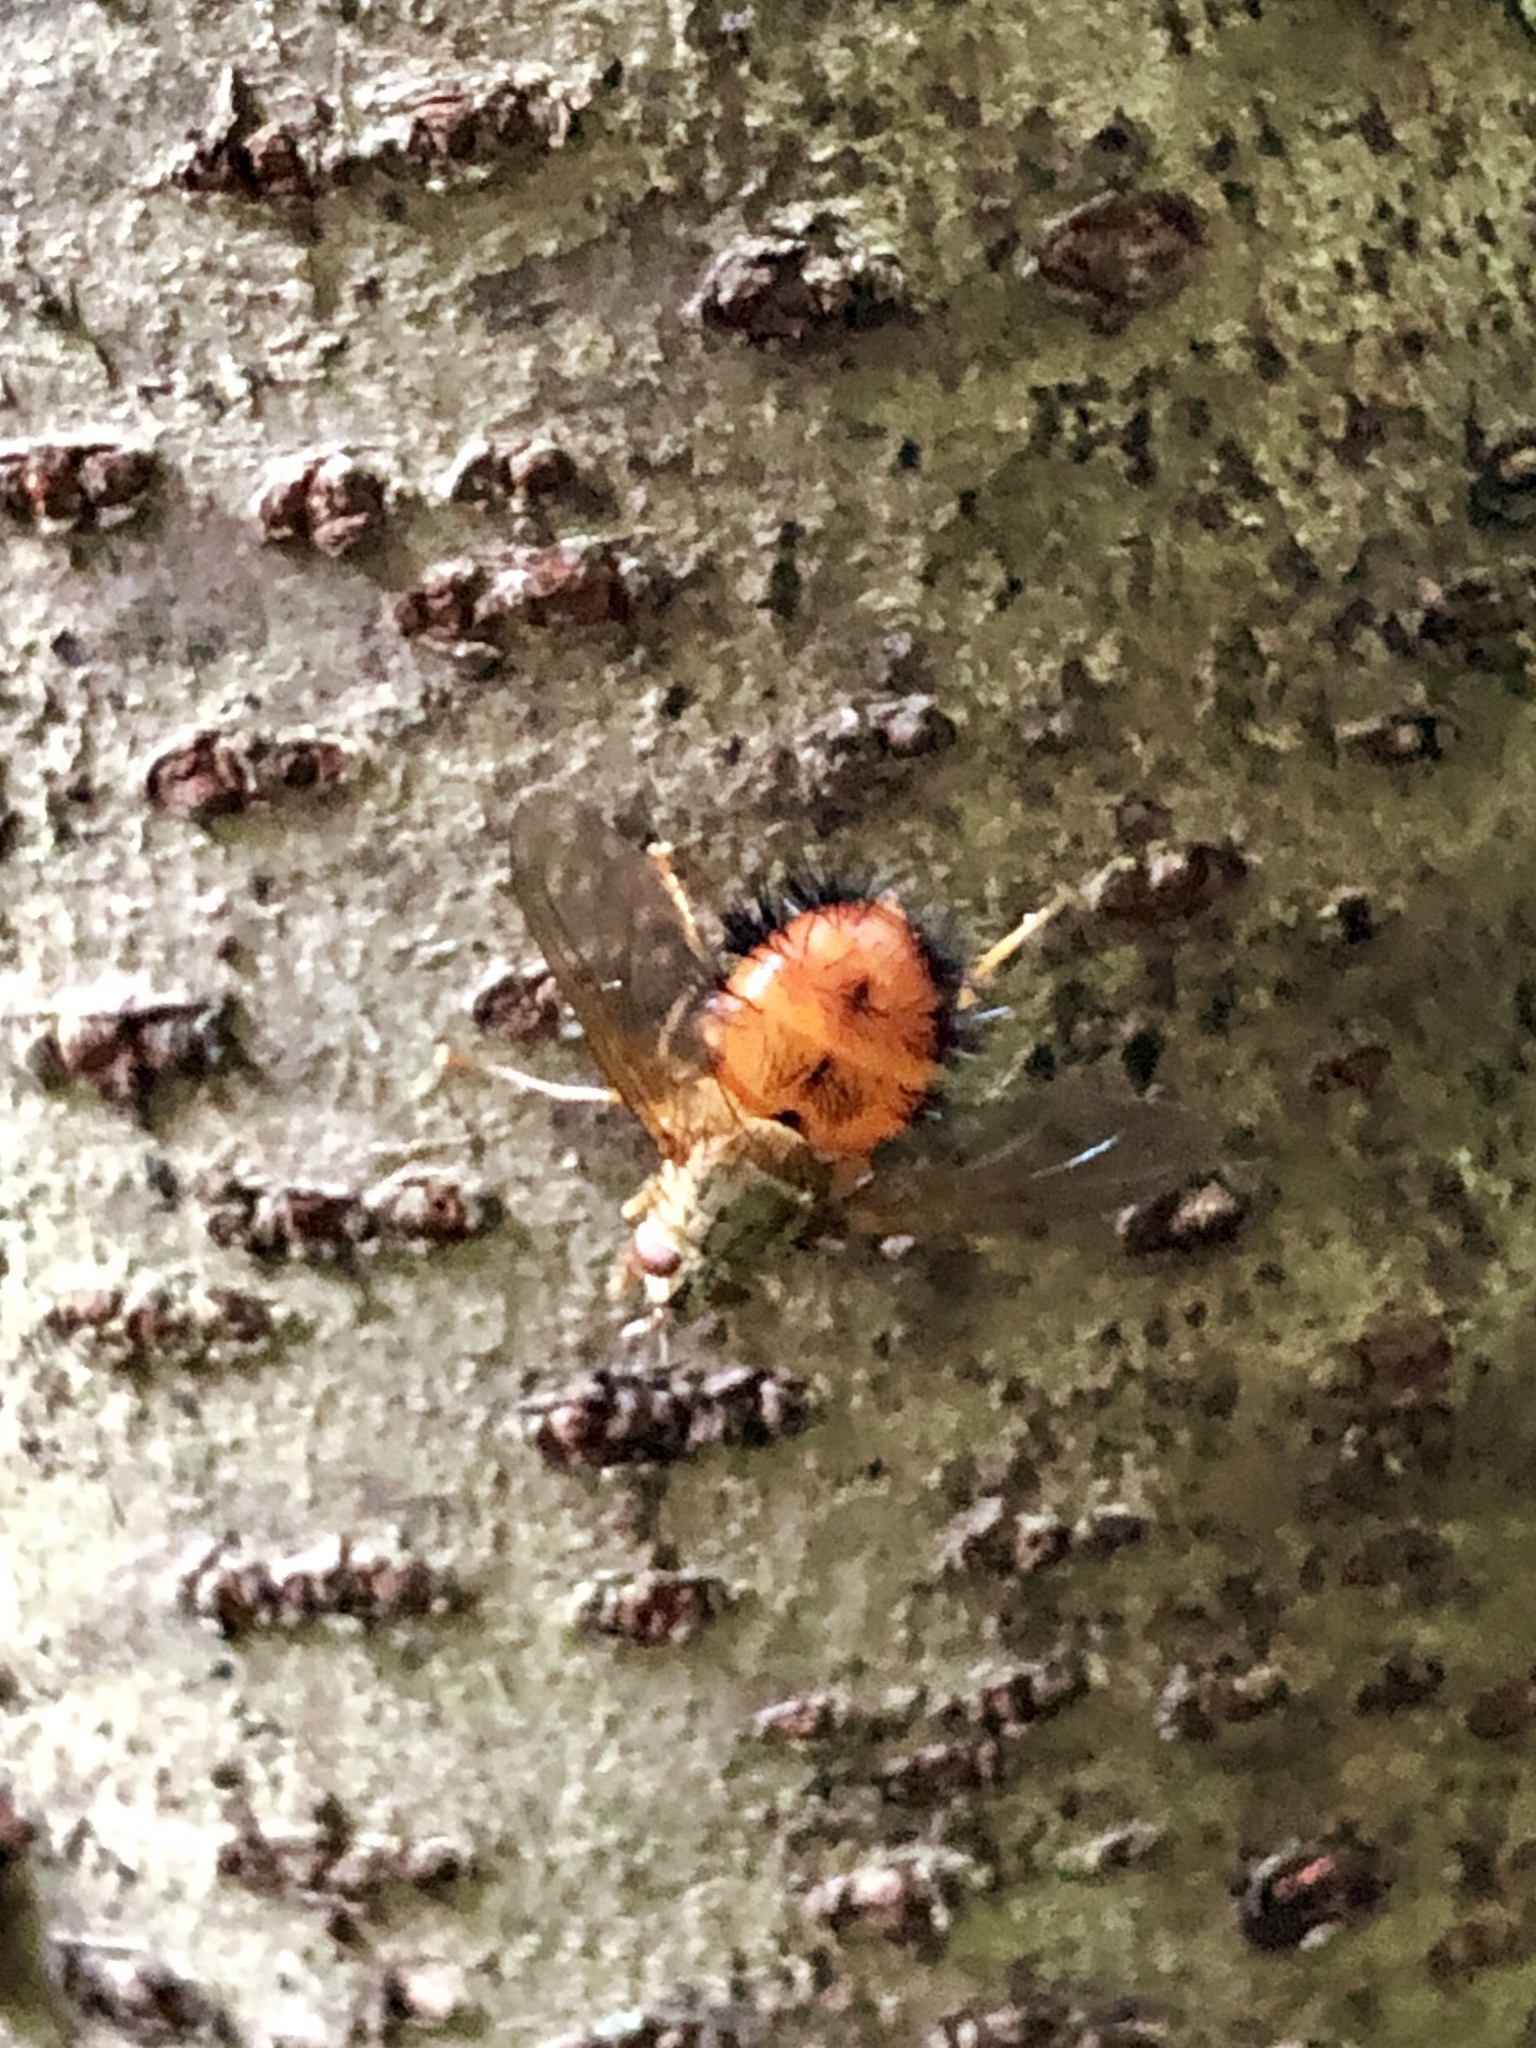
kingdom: Animalia
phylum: Arthropoda
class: Insecta
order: Diptera
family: Tachinidae
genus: Hystricia
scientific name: Hystricia abrupta
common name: Tomato bristle fly
